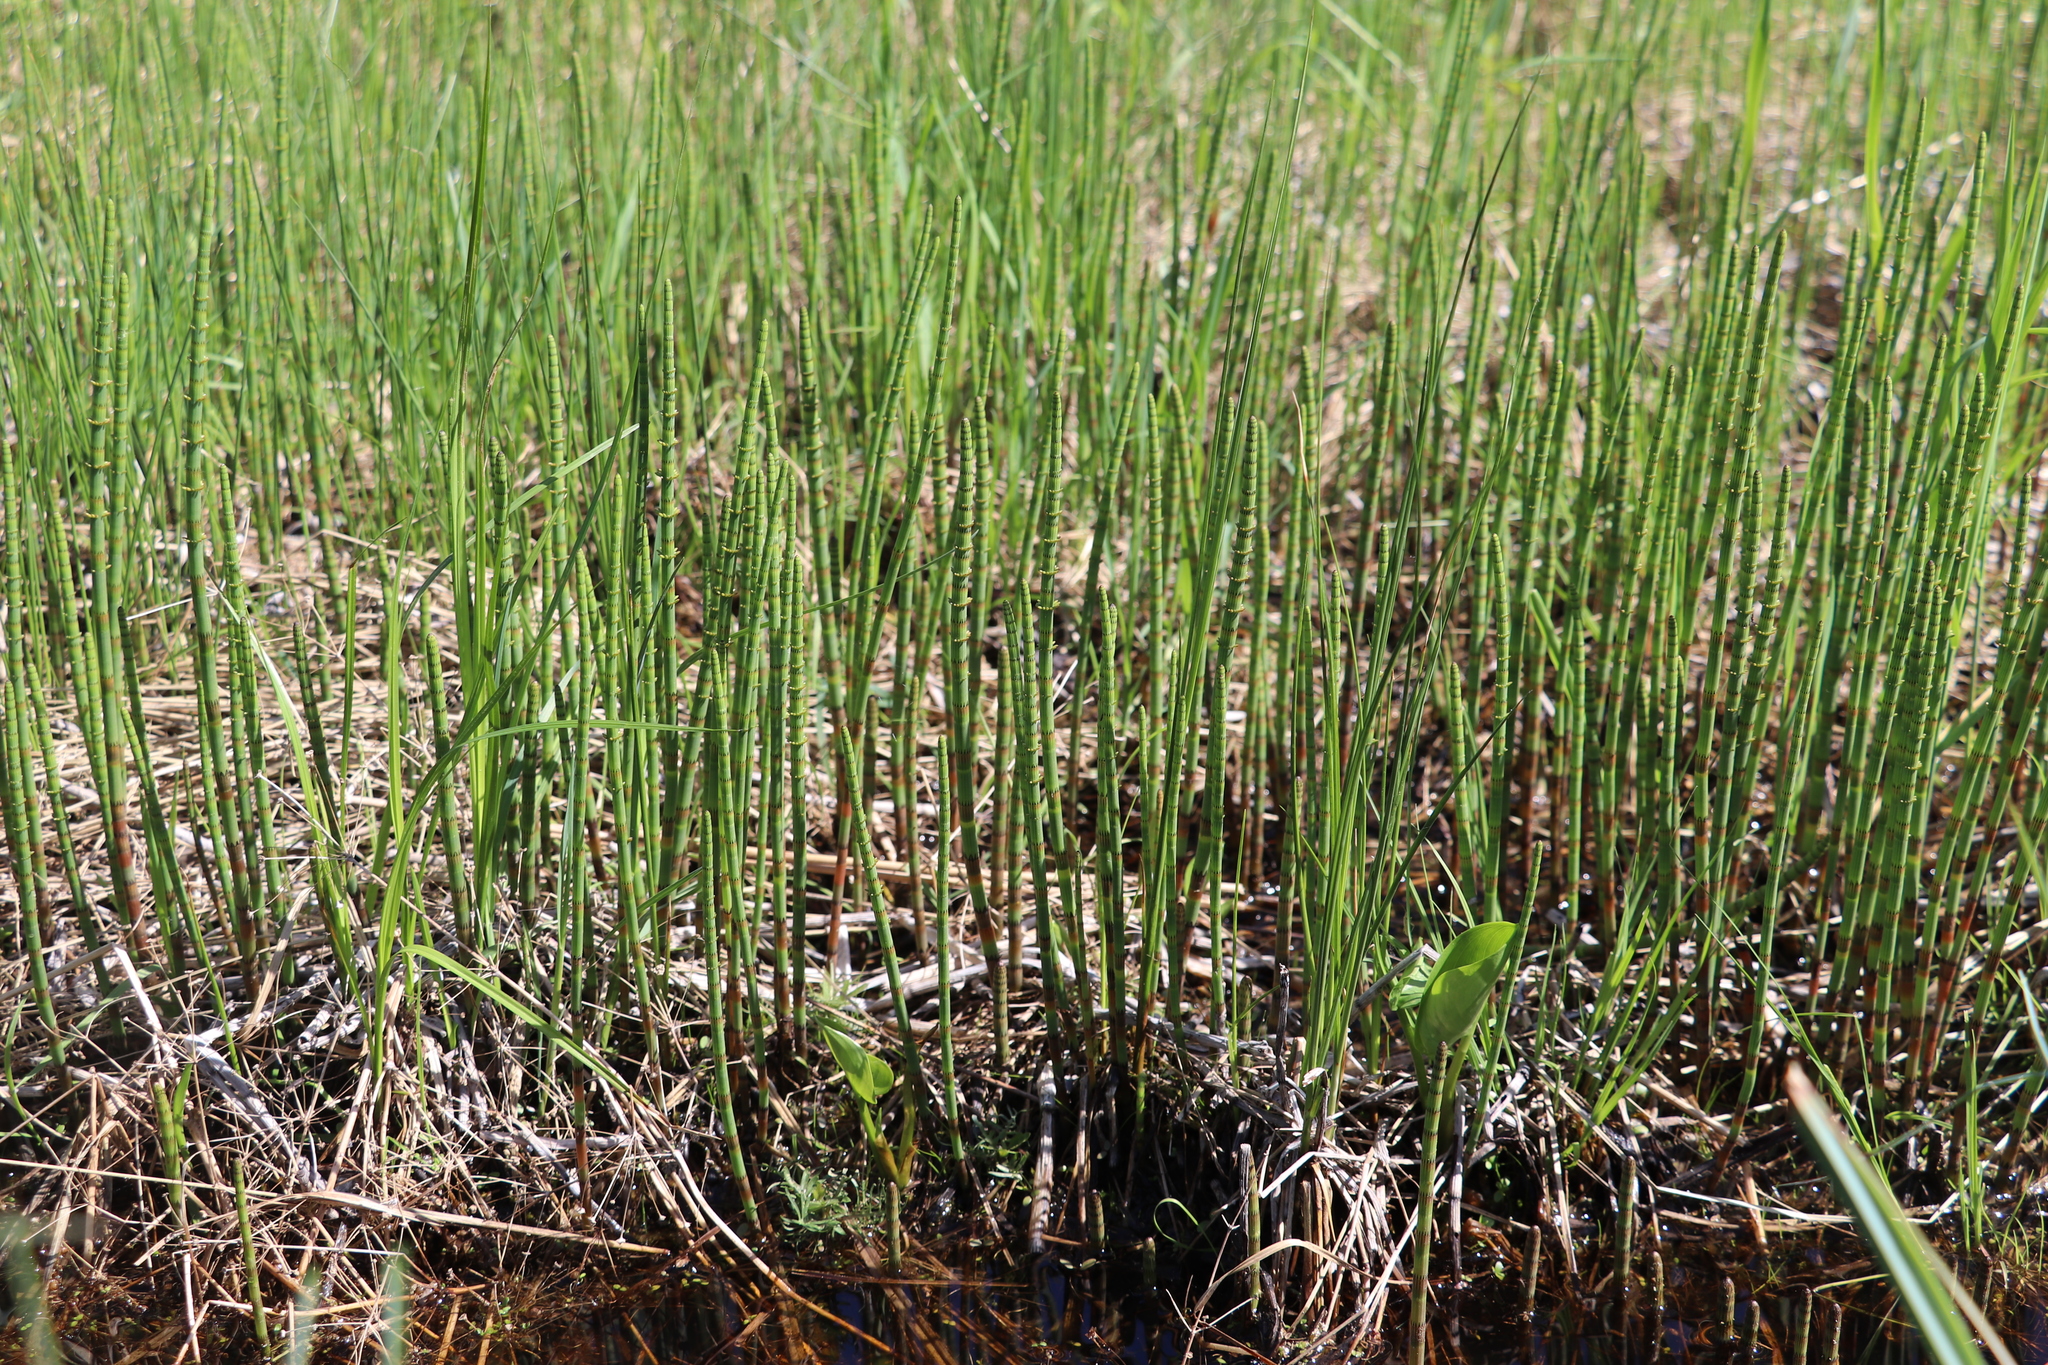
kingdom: Plantae
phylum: Tracheophyta
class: Polypodiopsida
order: Equisetales
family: Equisetaceae
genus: Equisetum
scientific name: Equisetum fluviatile
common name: Water horsetail
